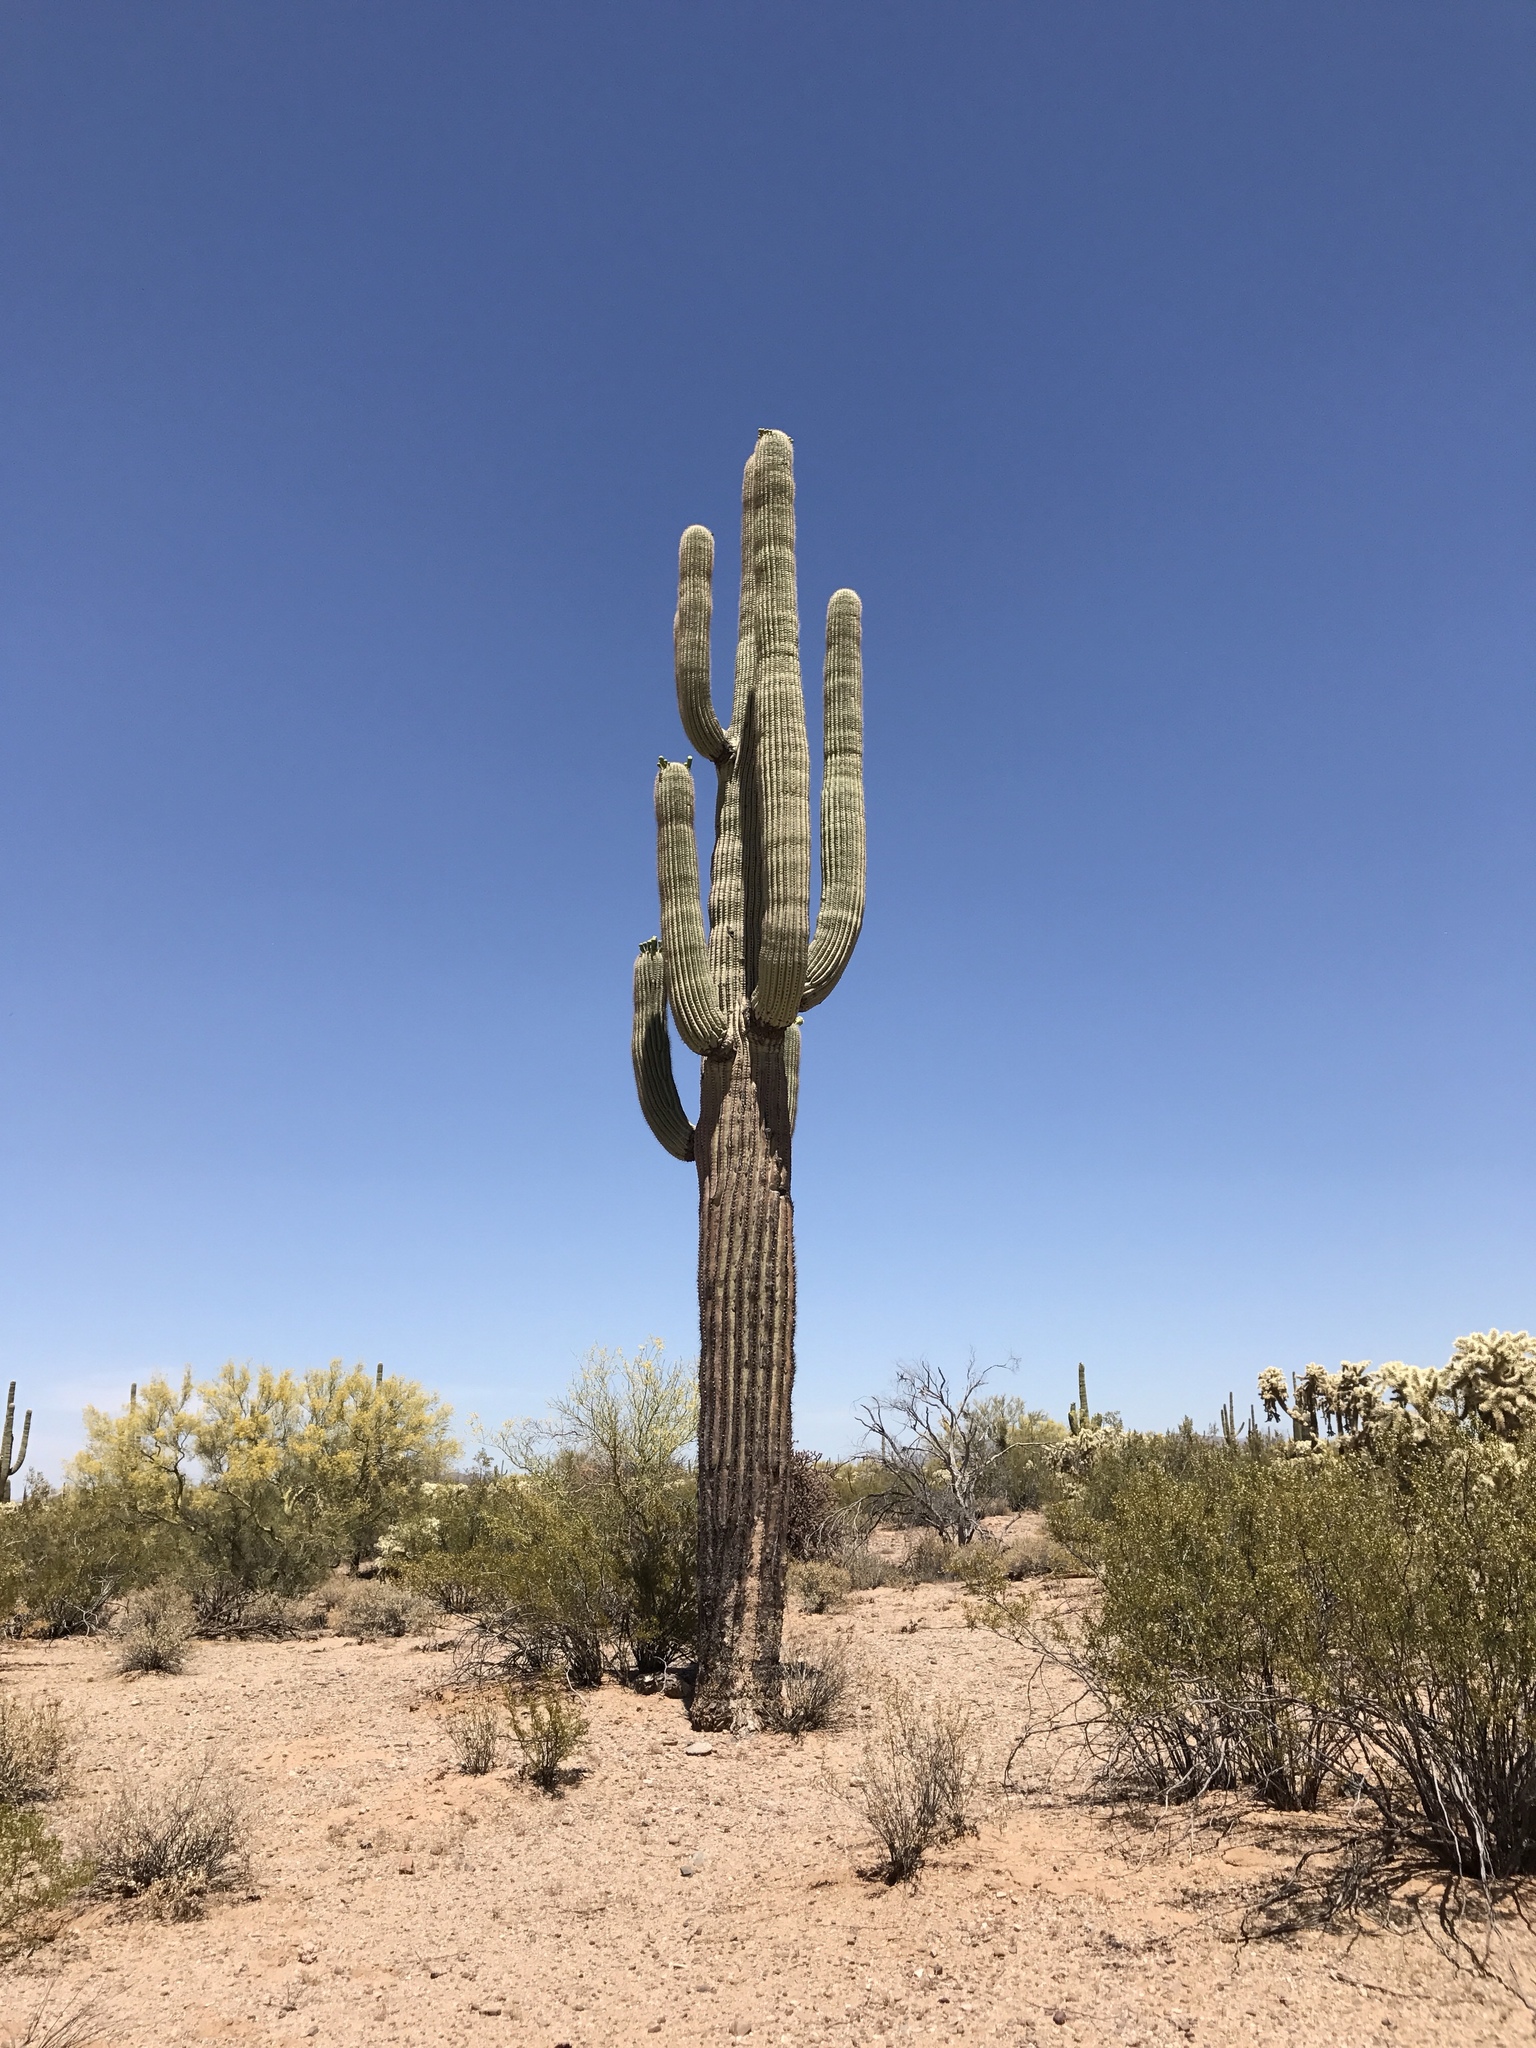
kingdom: Plantae
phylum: Tracheophyta
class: Magnoliopsida
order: Caryophyllales
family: Cactaceae
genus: Carnegiea
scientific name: Carnegiea gigantea
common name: Saguaro
